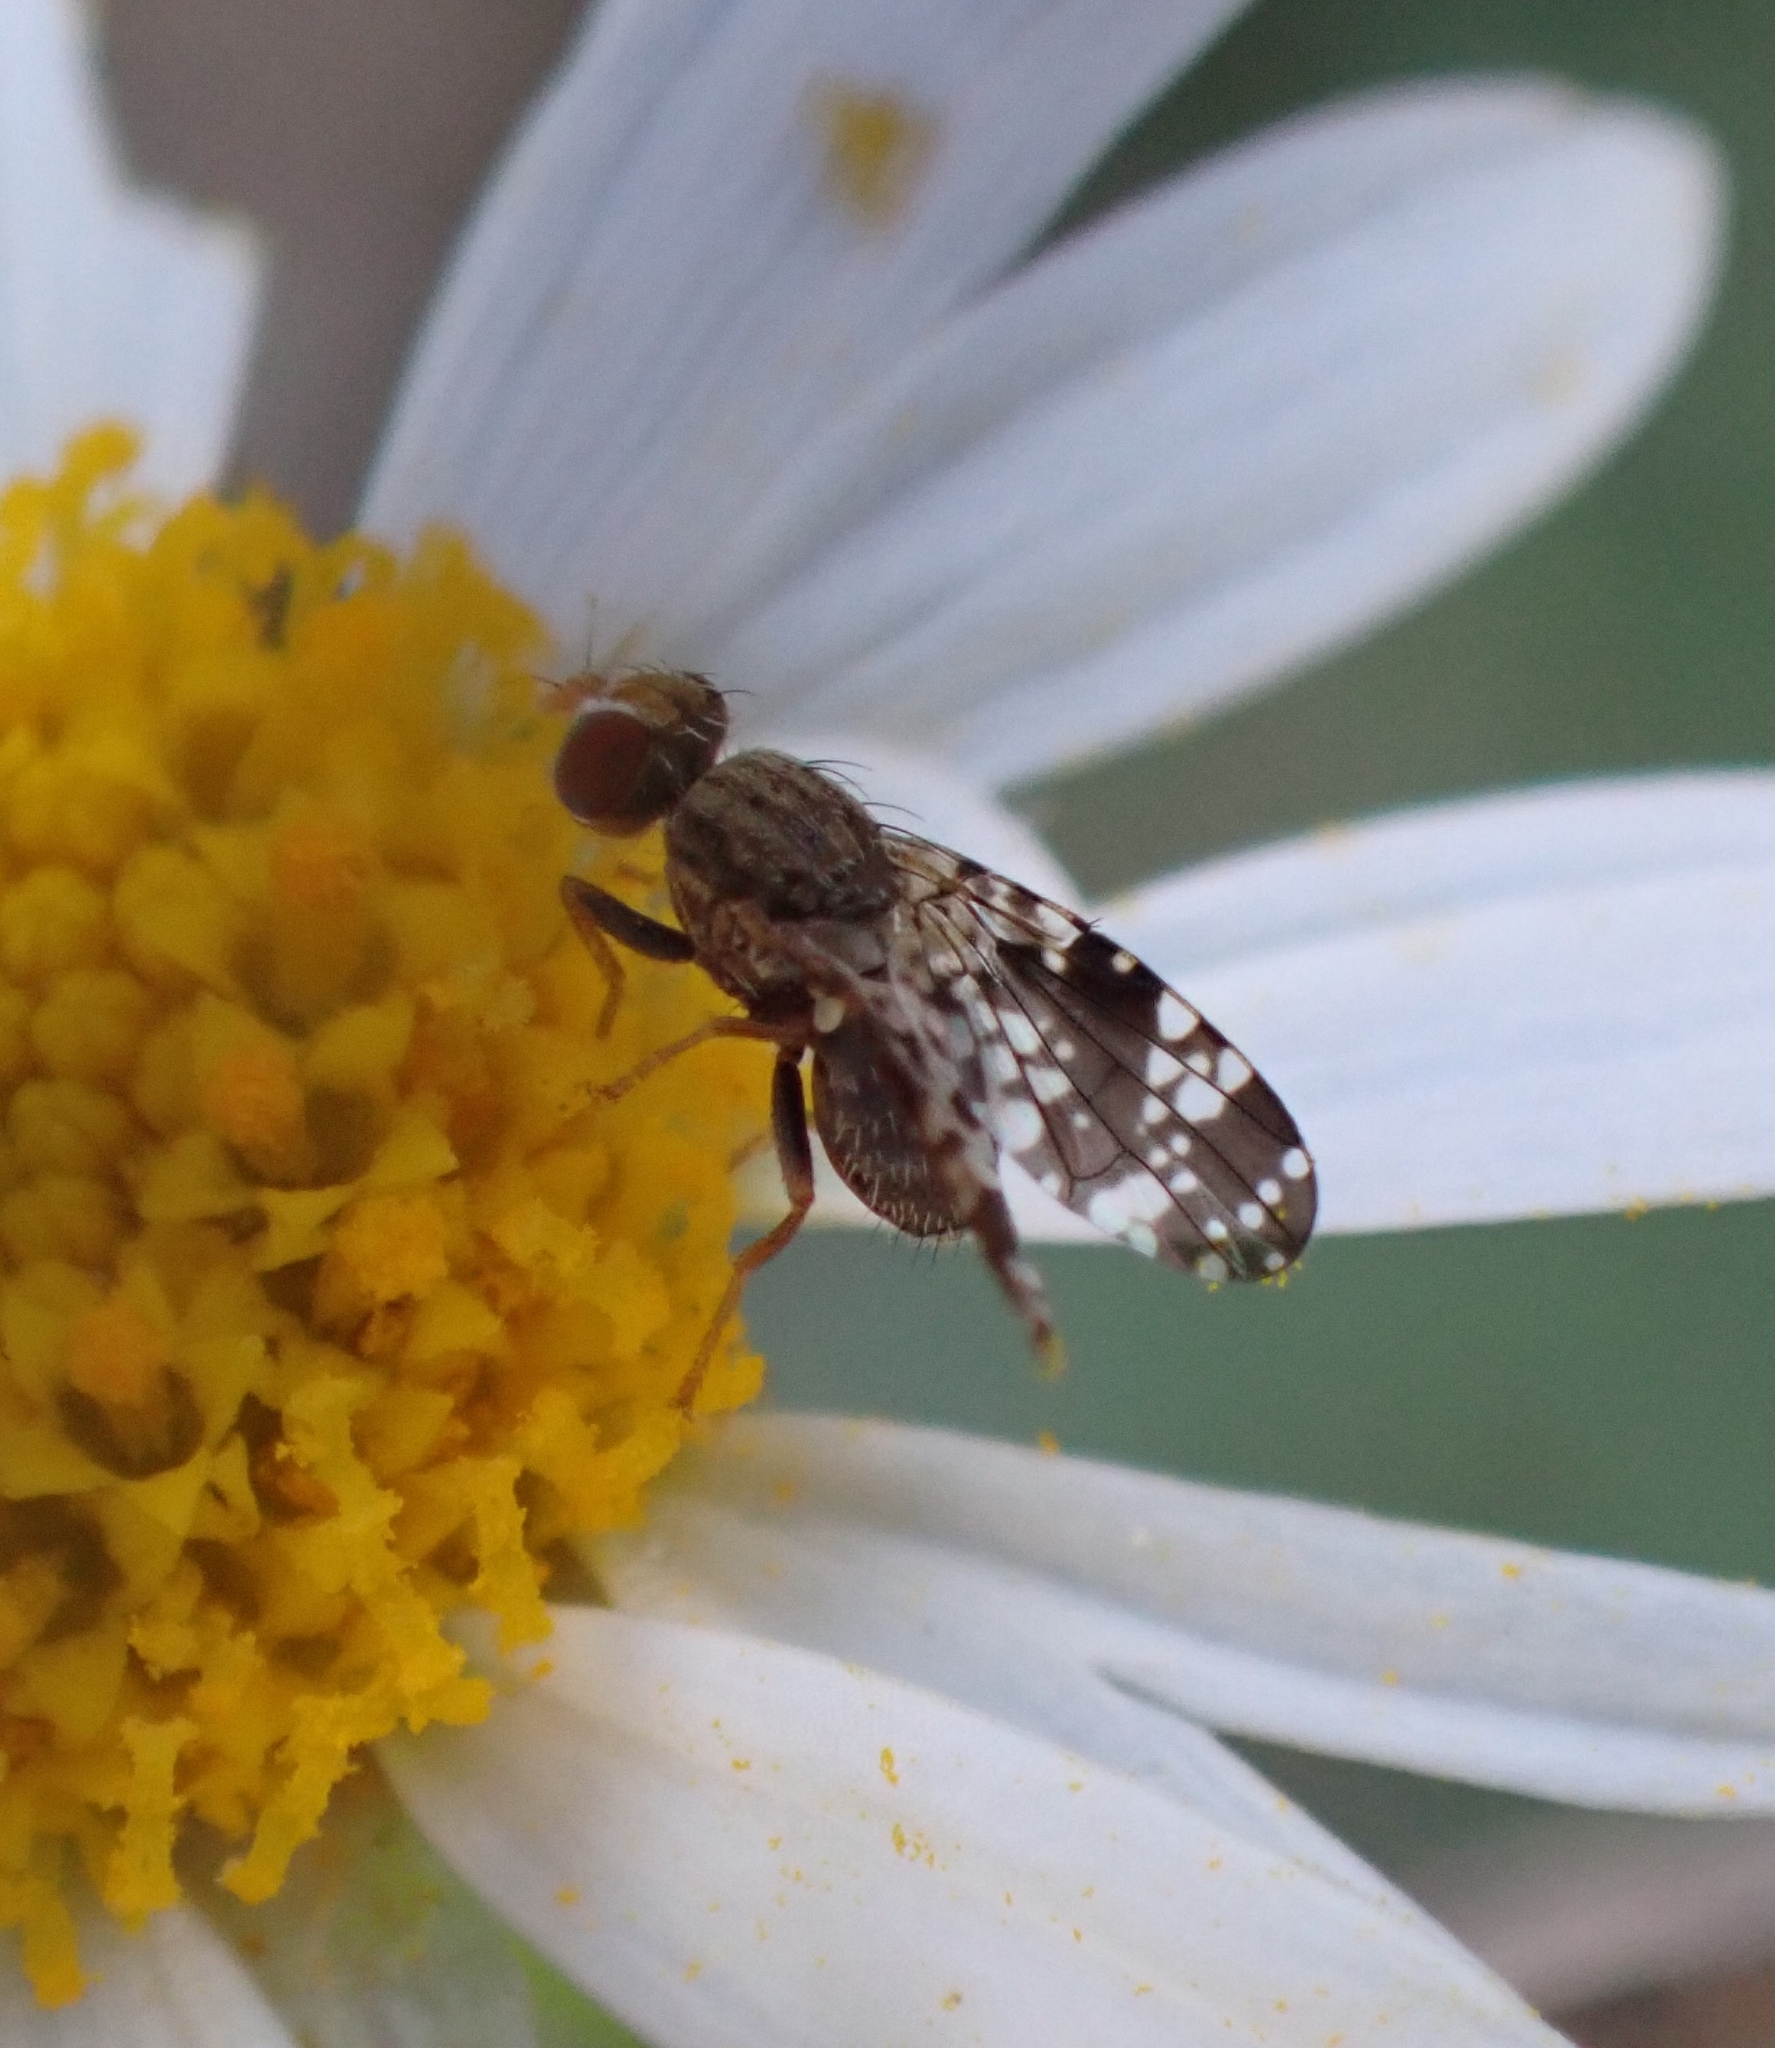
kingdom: Animalia
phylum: Arthropoda
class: Insecta
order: Diptera
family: Tephritidae
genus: Campiglossa
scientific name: Campiglossa reticulata
